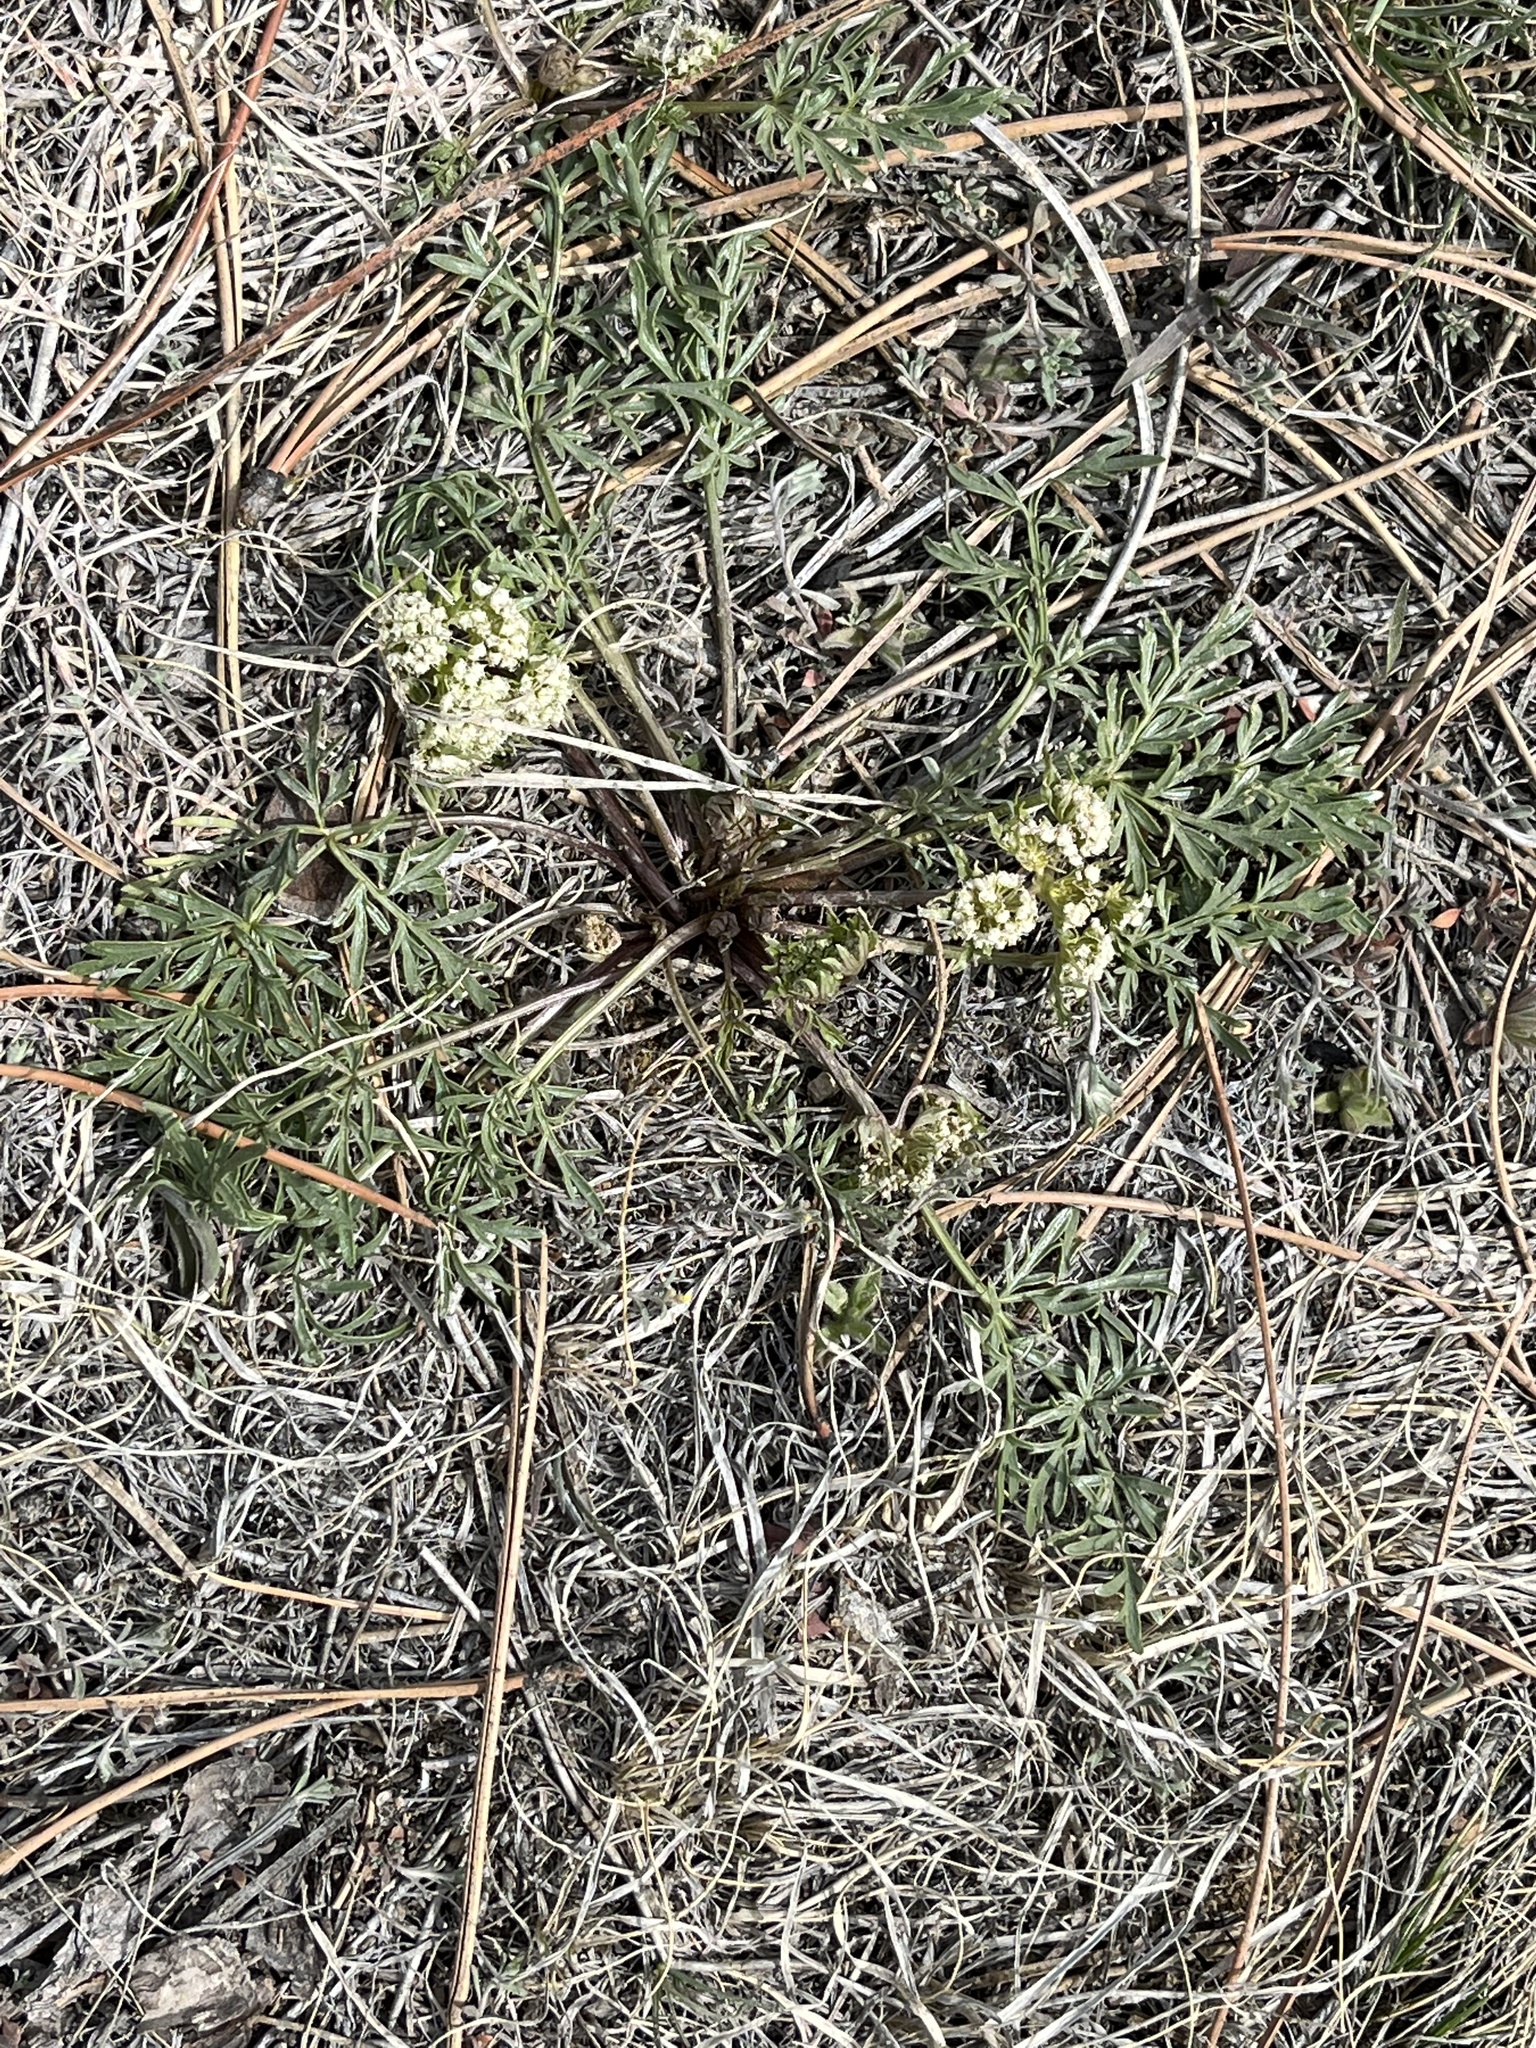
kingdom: Plantae
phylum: Tracheophyta
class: Magnoliopsida
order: Apiales
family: Apiaceae
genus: Cymopterus
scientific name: Cymopterus glomeratus
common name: Plains spring parsley
